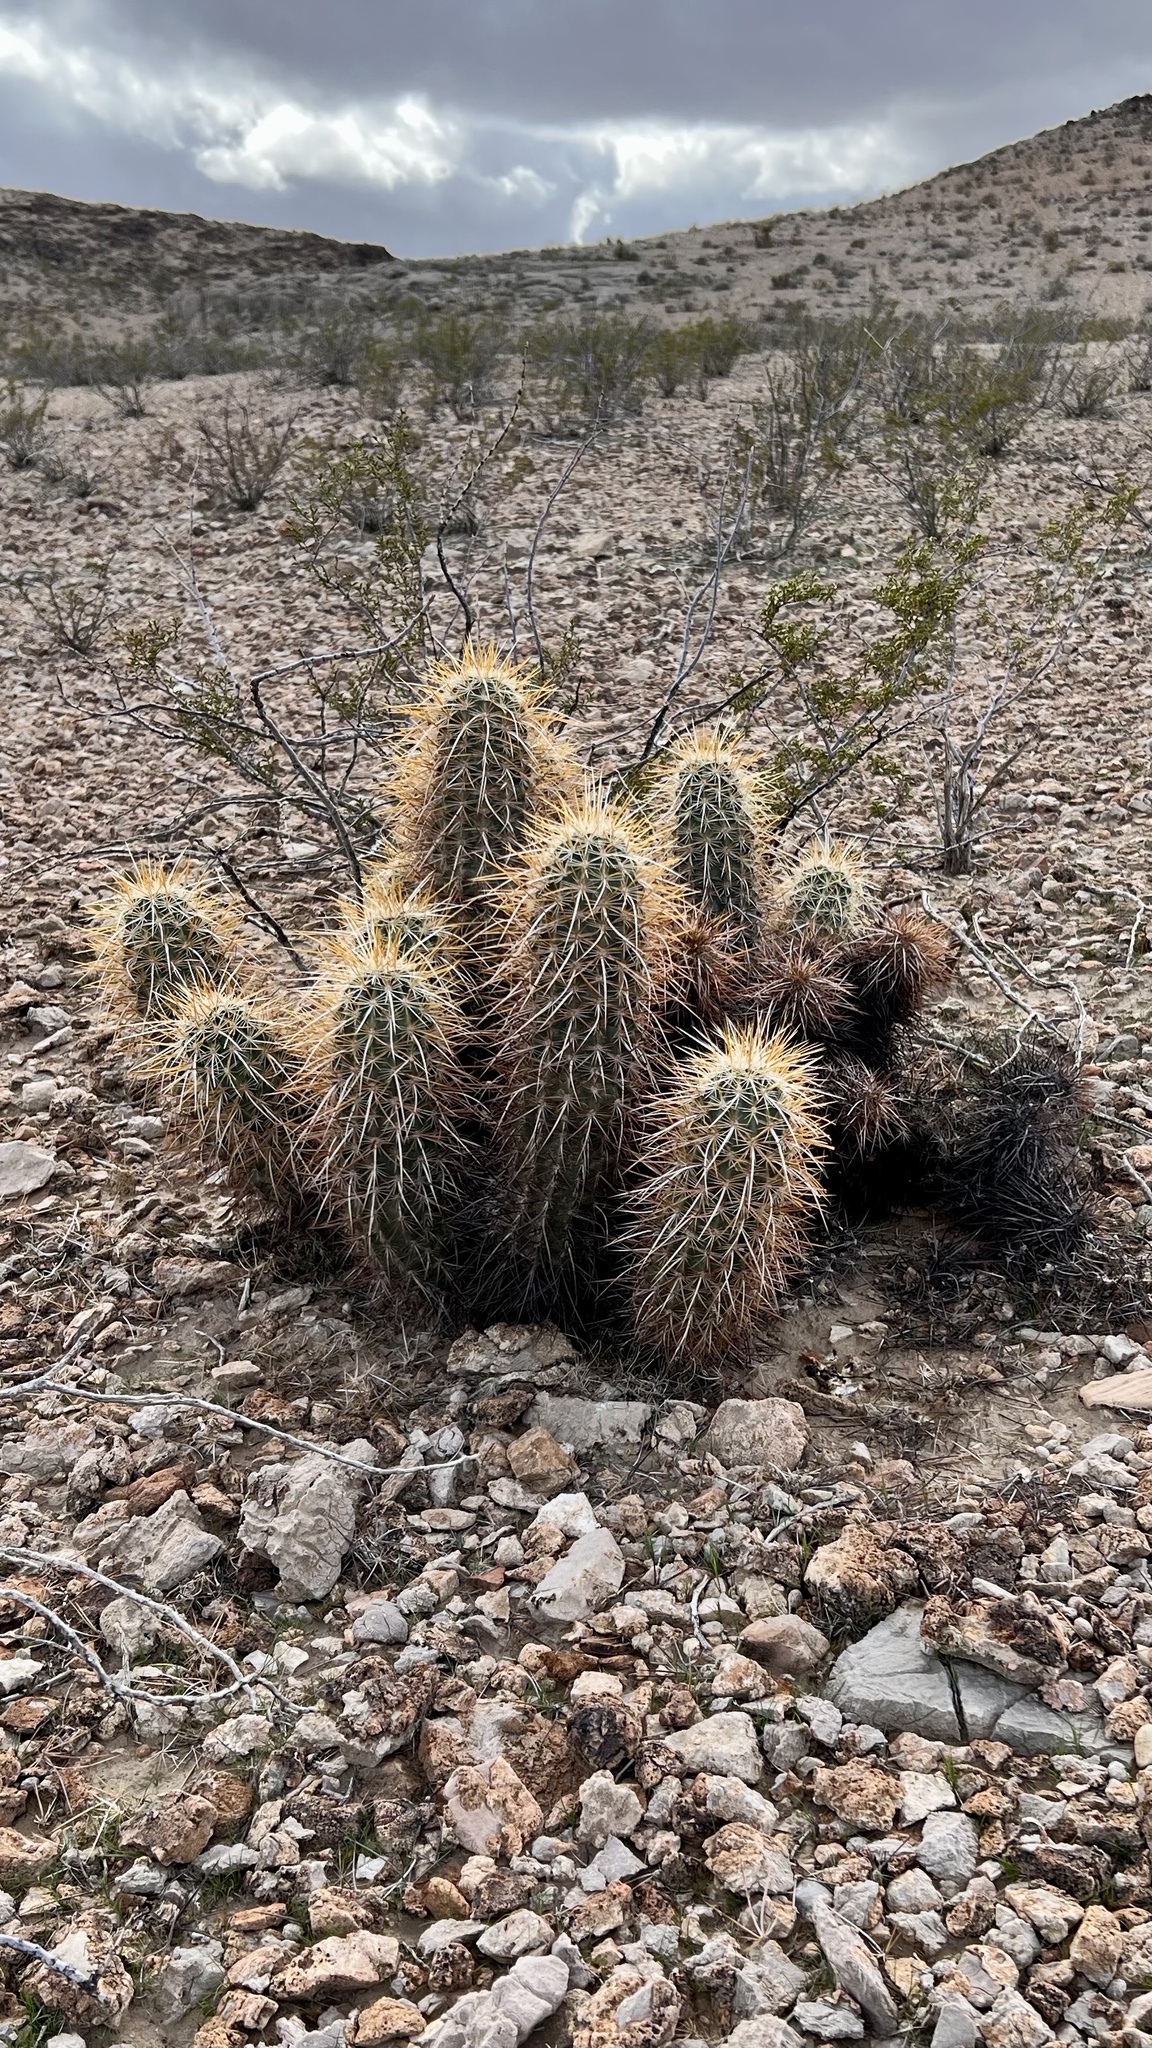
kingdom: Plantae
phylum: Tracheophyta
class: Magnoliopsida
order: Caryophyllales
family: Cactaceae
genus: Echinocereus
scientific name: Echinocereus engelmannii
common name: Engelmann's hedgehog cactus
